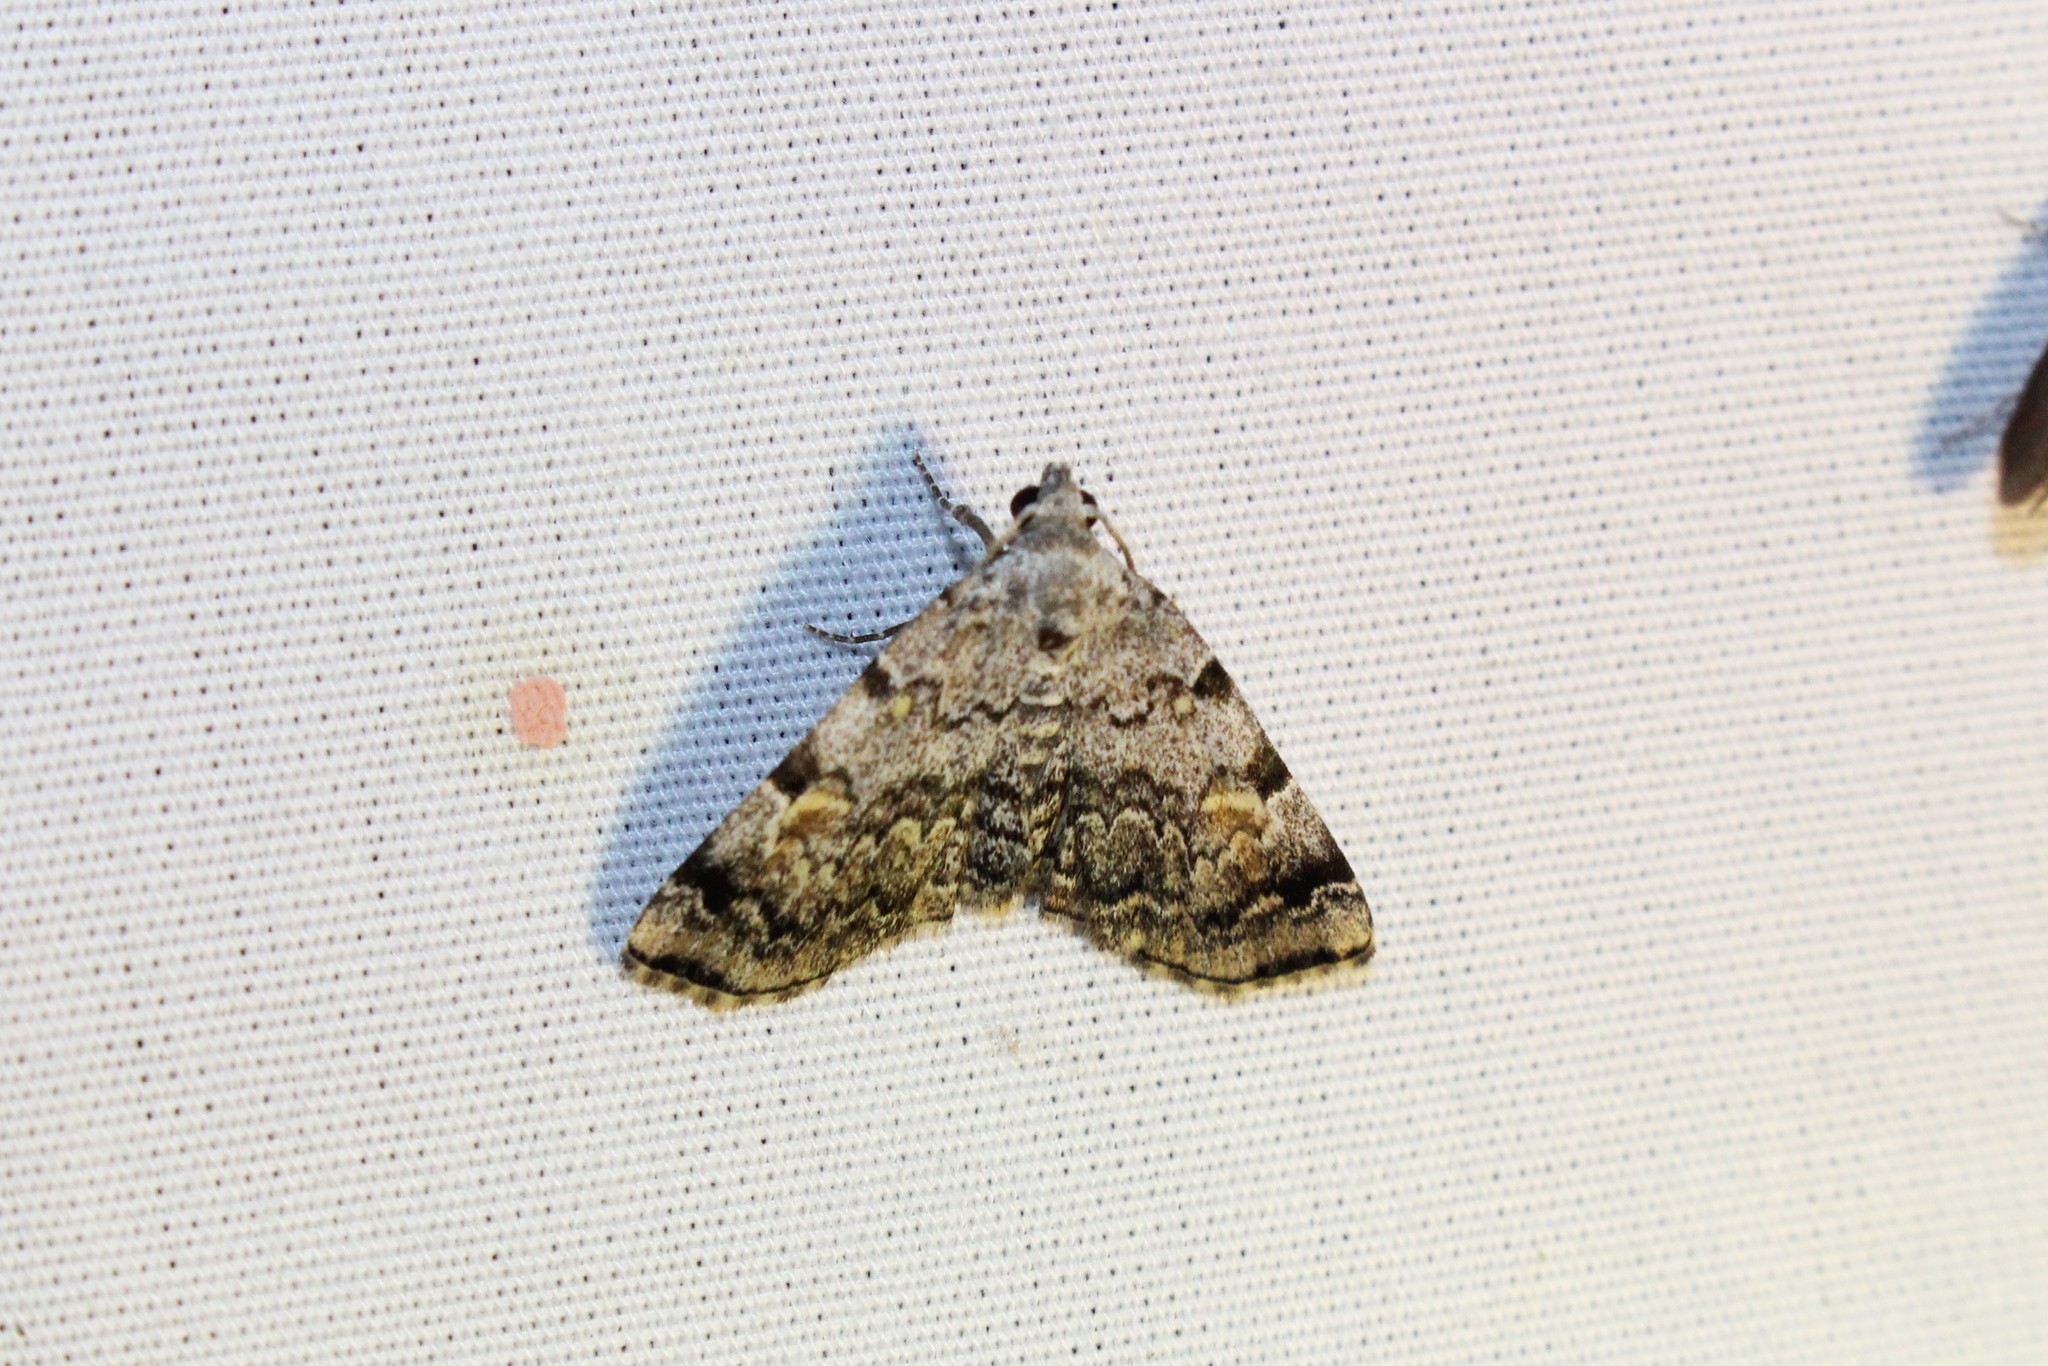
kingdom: Animalia
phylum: Arthropoda
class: Insecta
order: Lepidoptera
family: Erebidae
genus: Idia
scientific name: Idia americalis
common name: American idia moth
